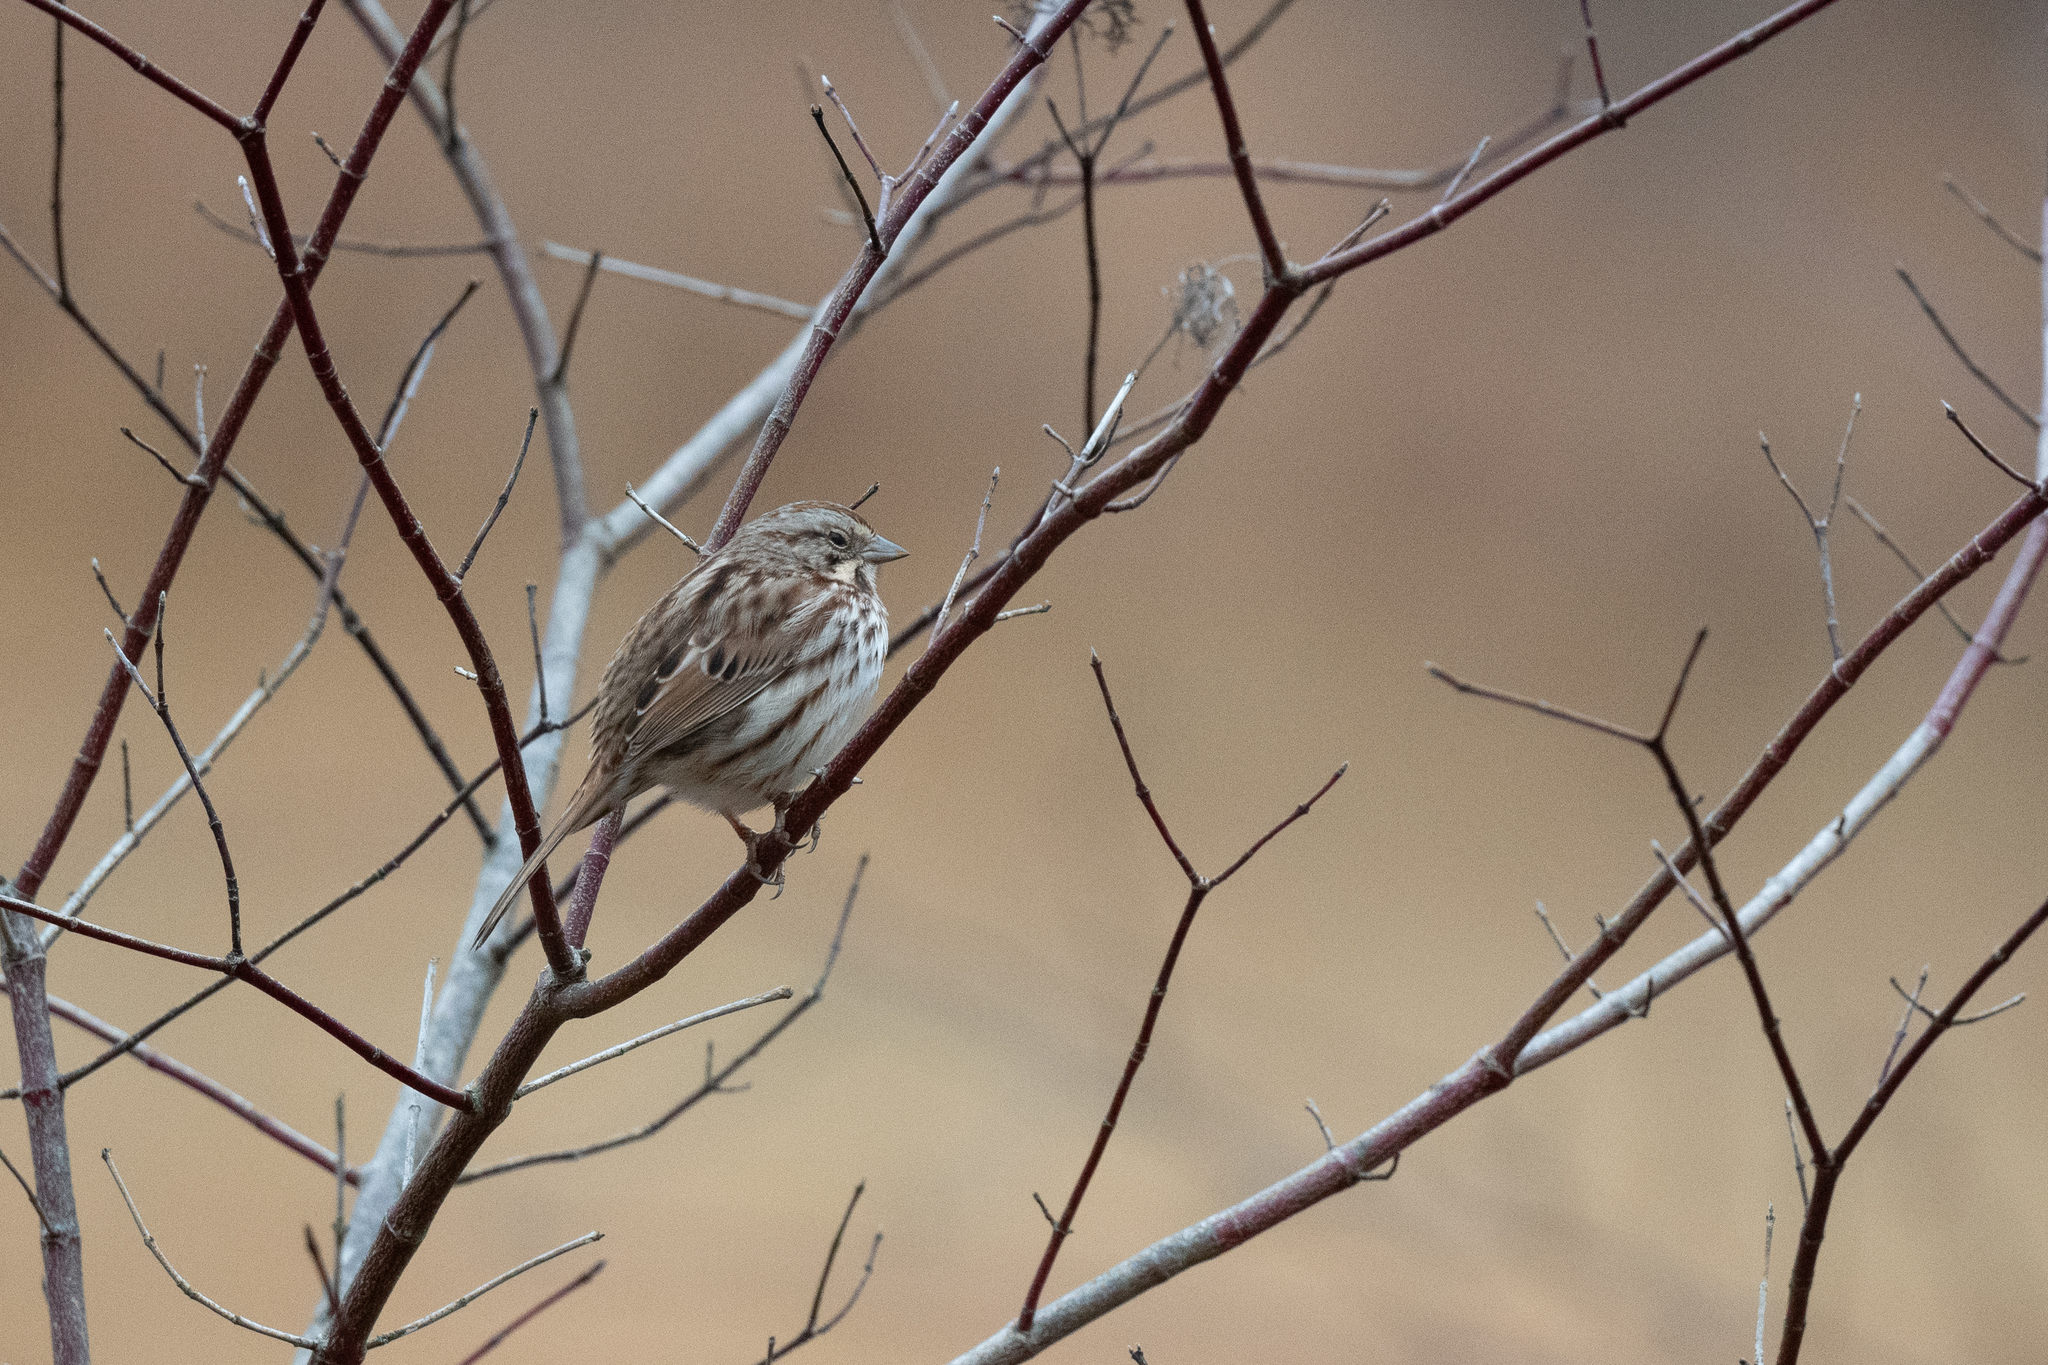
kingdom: Animalia
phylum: Chordata
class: Aves
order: Passeriformes
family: Passerellidae
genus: Melospiza
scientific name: Melospiza melodia
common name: Song sparrow
